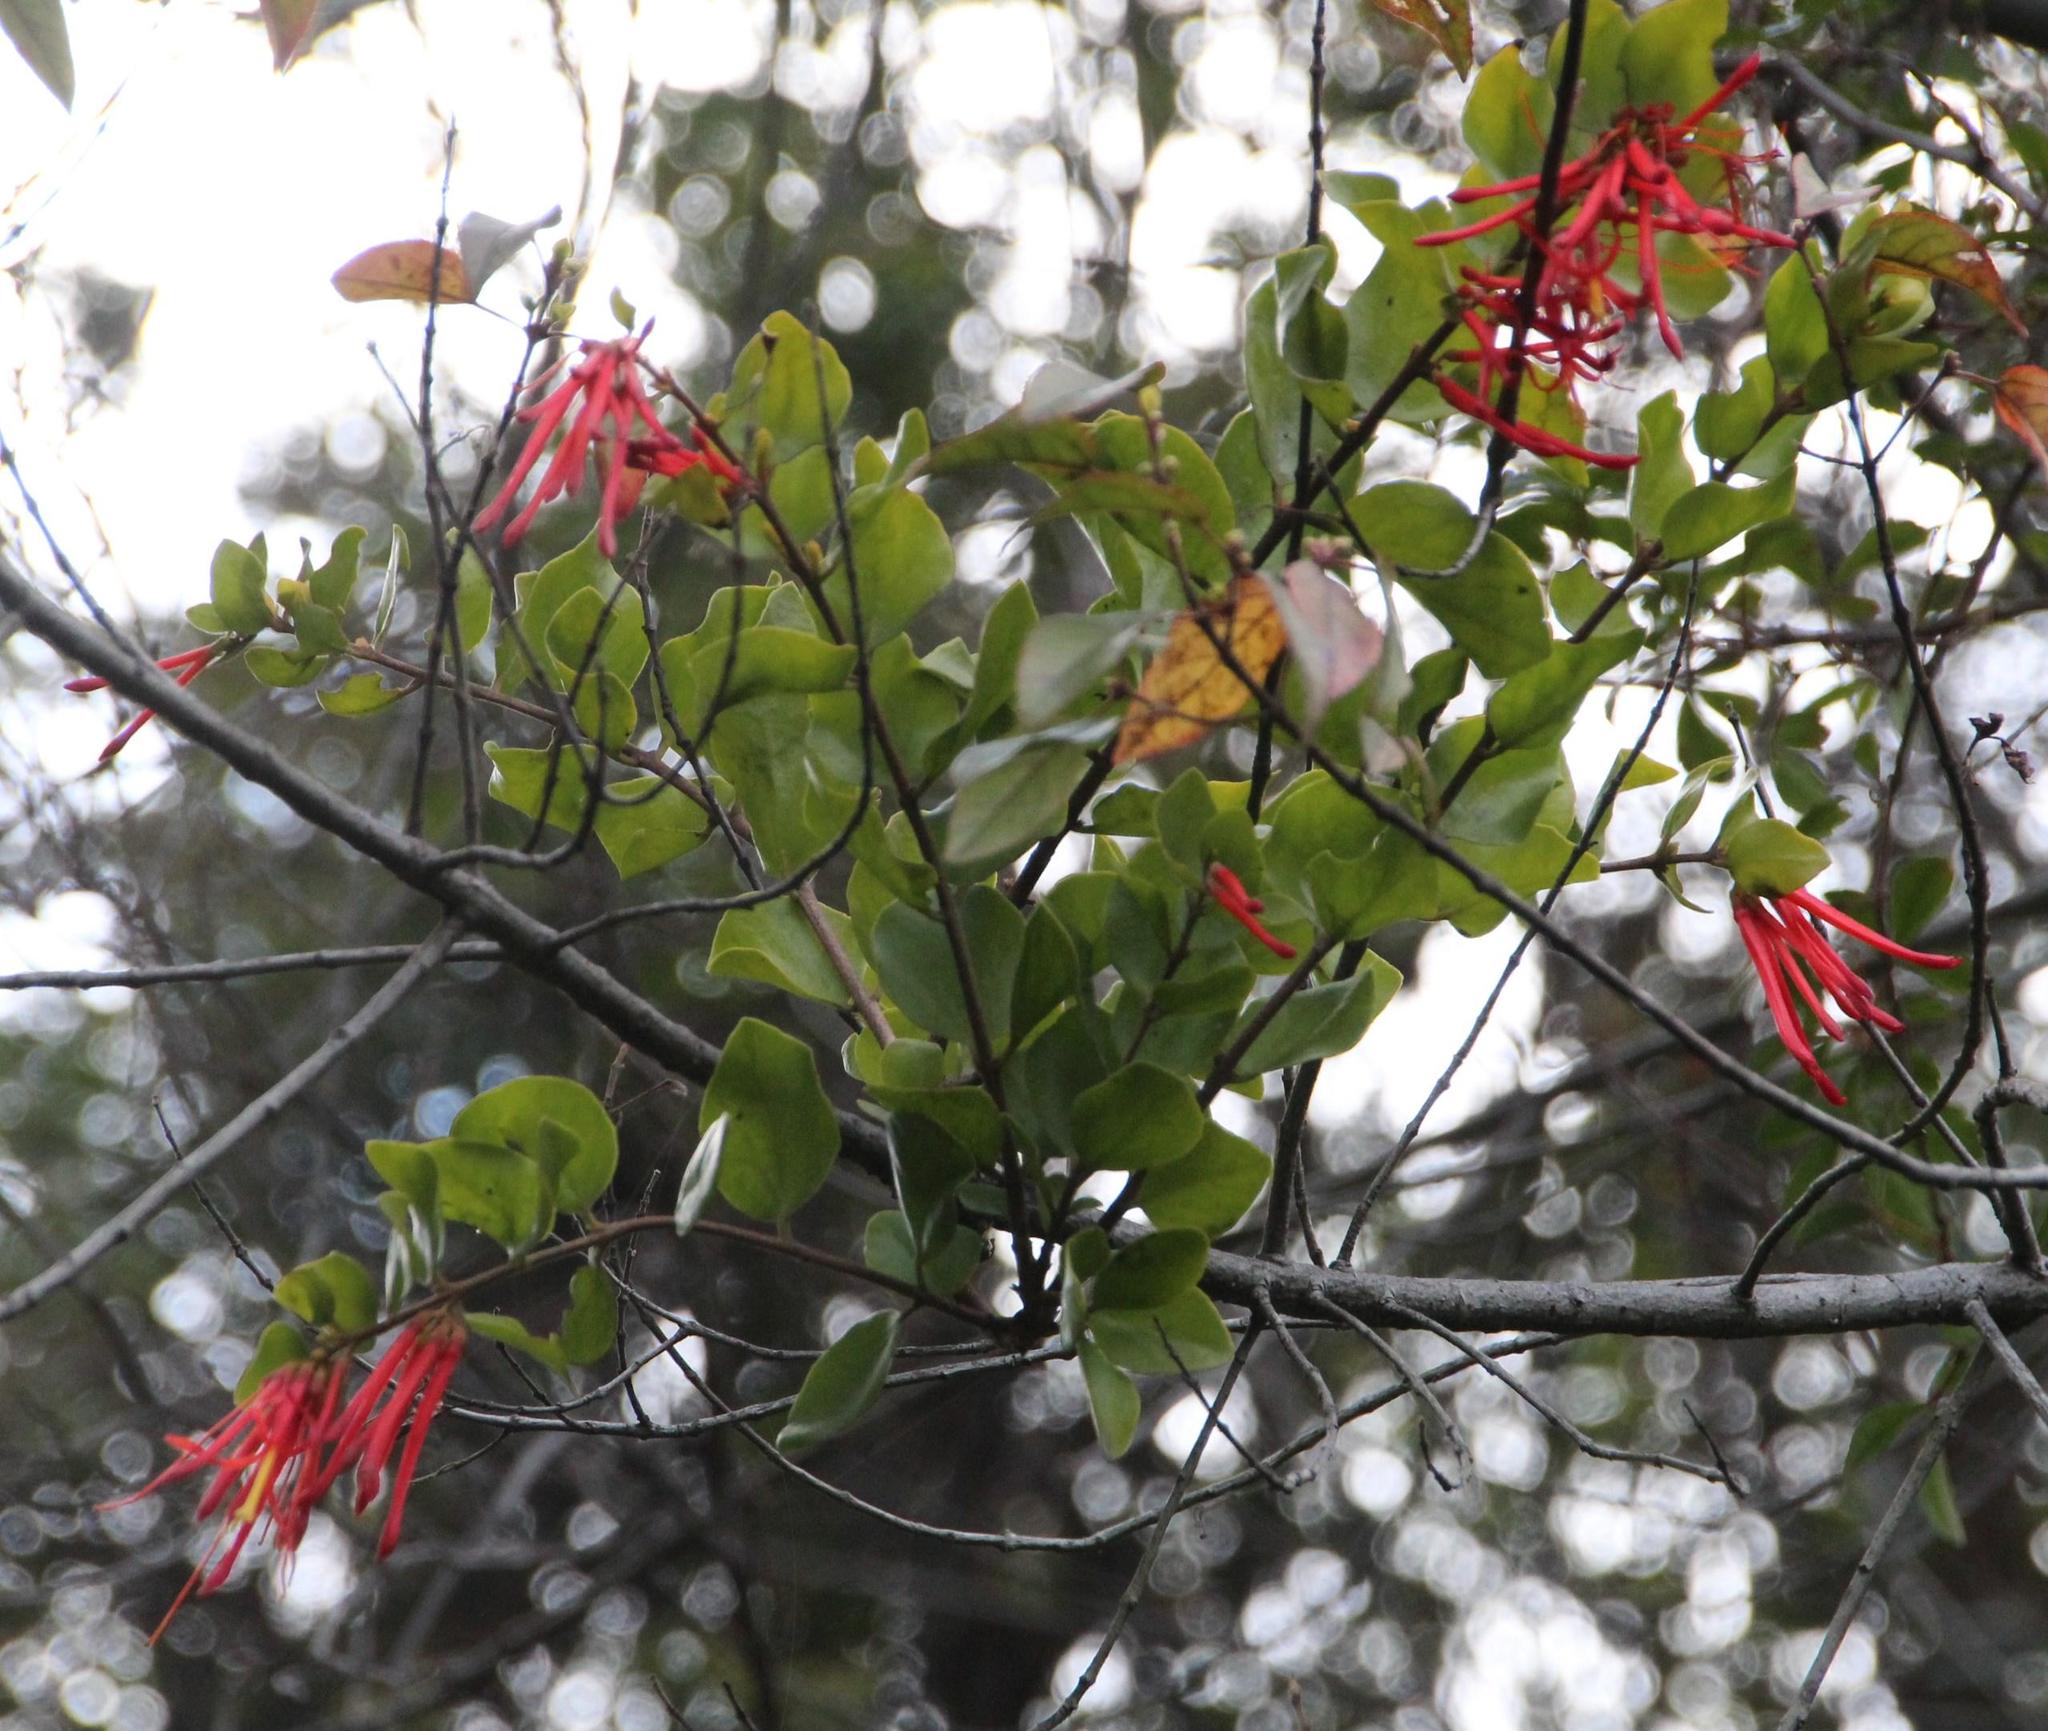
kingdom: Plantae
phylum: Tracheophyta
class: Magnoliopsida
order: Santalales
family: Loranthaceae
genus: Tristerix
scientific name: Tristerix corymbosus
